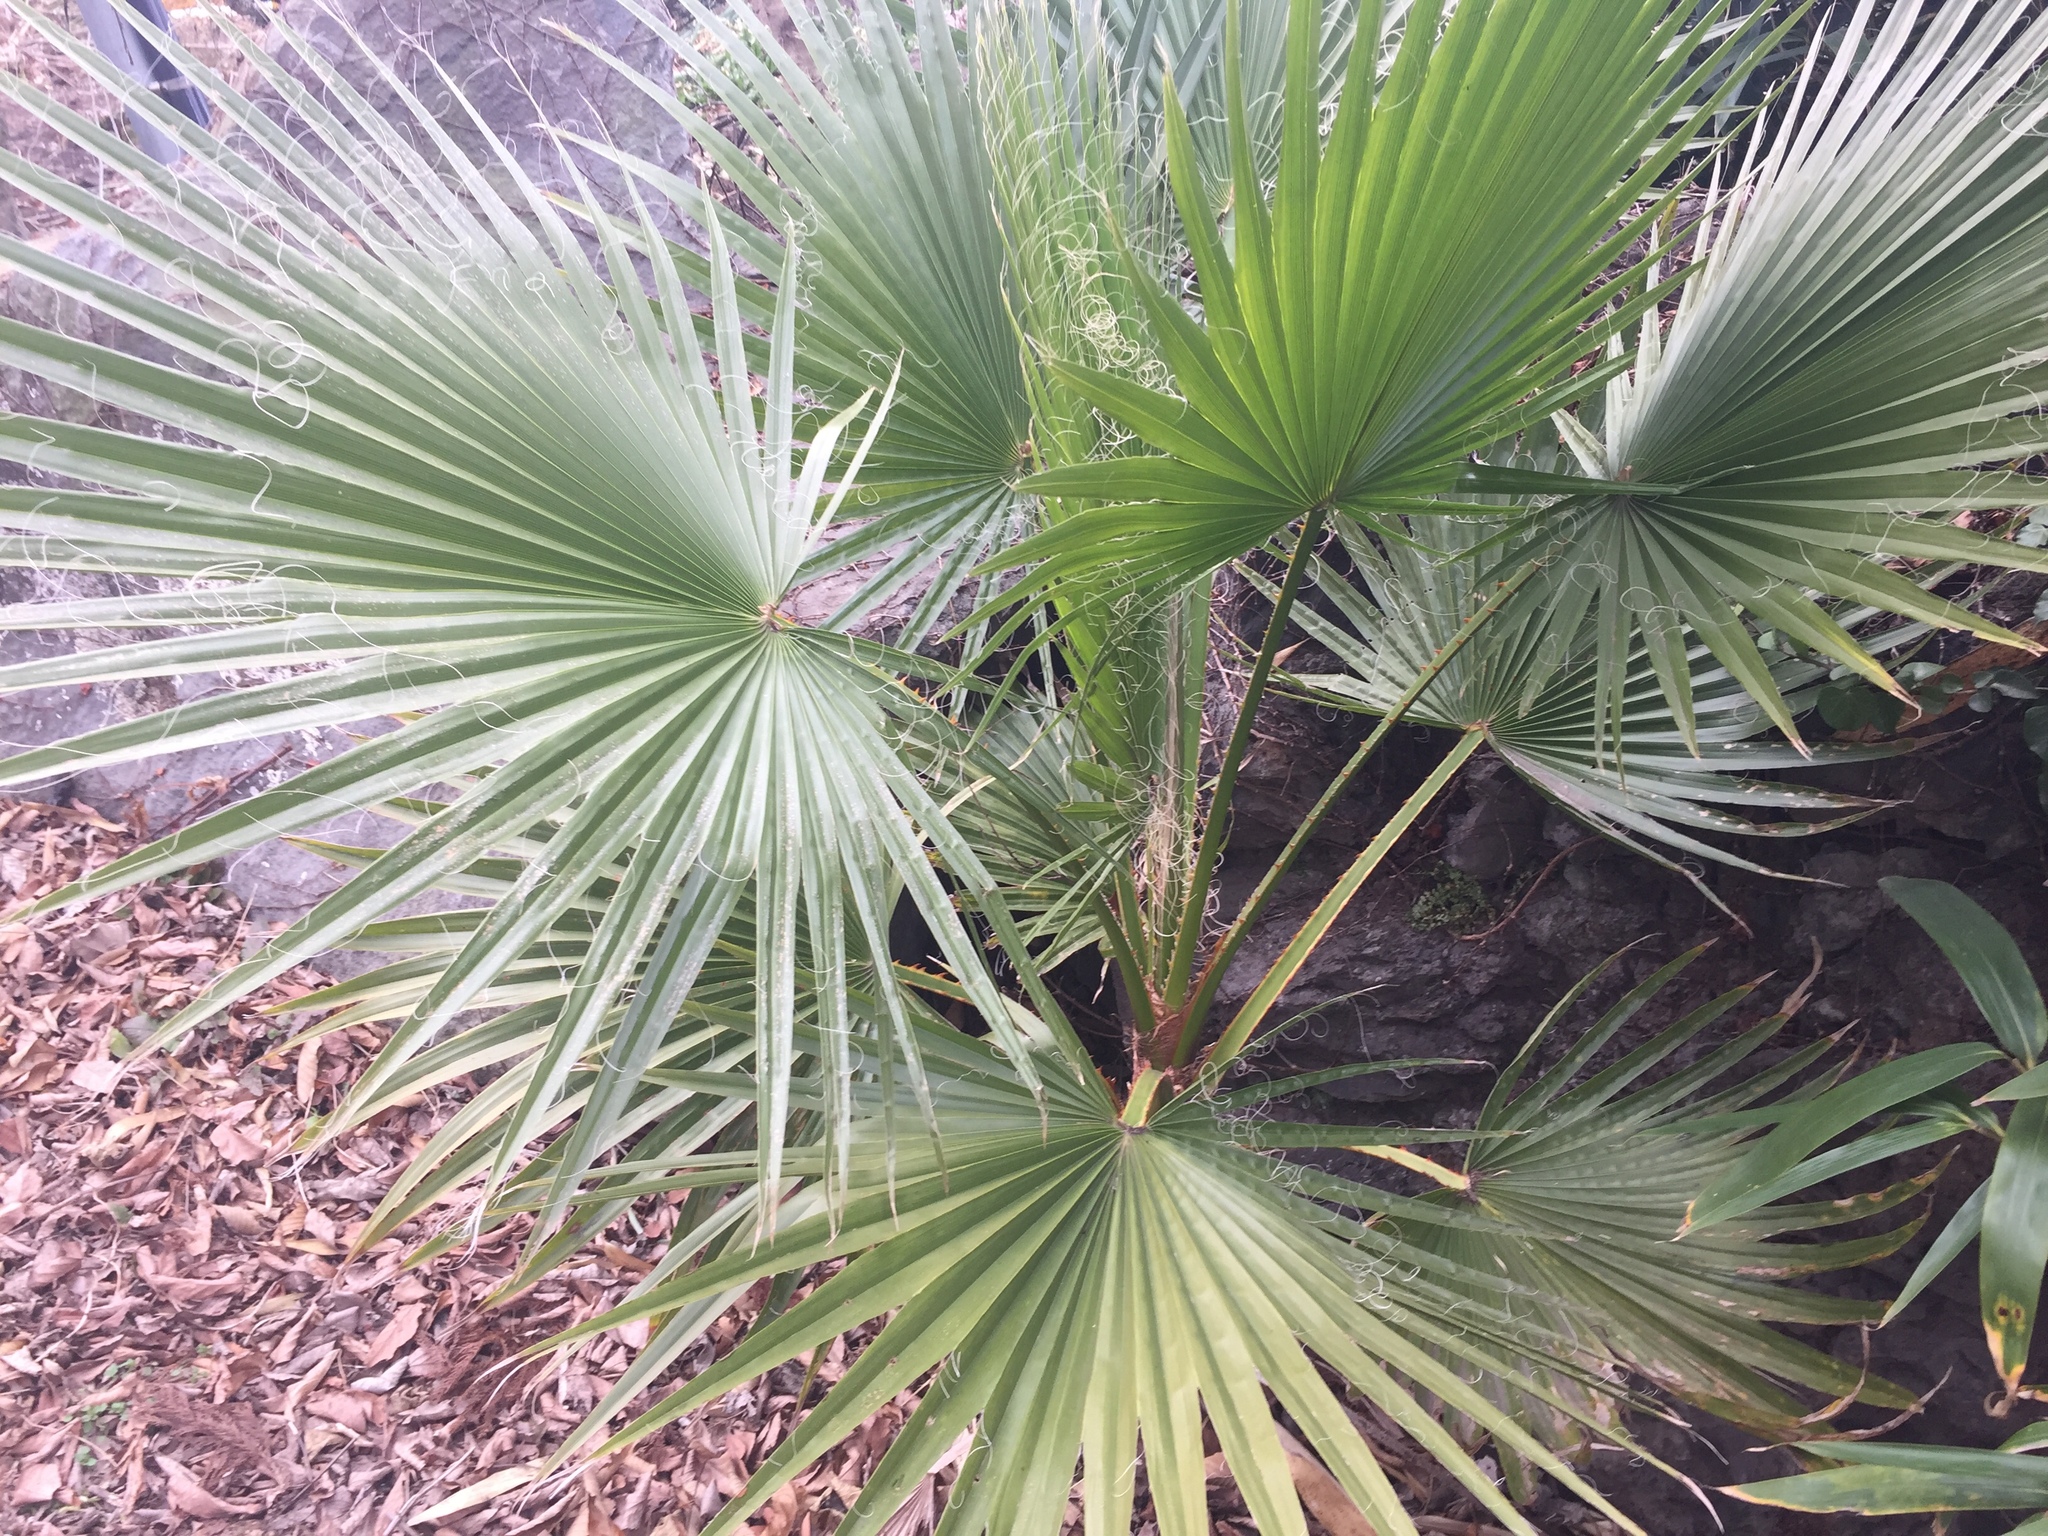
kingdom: Plantae
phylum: Tracheophyta
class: Liliopsida
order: Arecales
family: Arecaceae
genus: Washingtonia
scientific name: Washingtonia robusta
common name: Mexican fan palm
